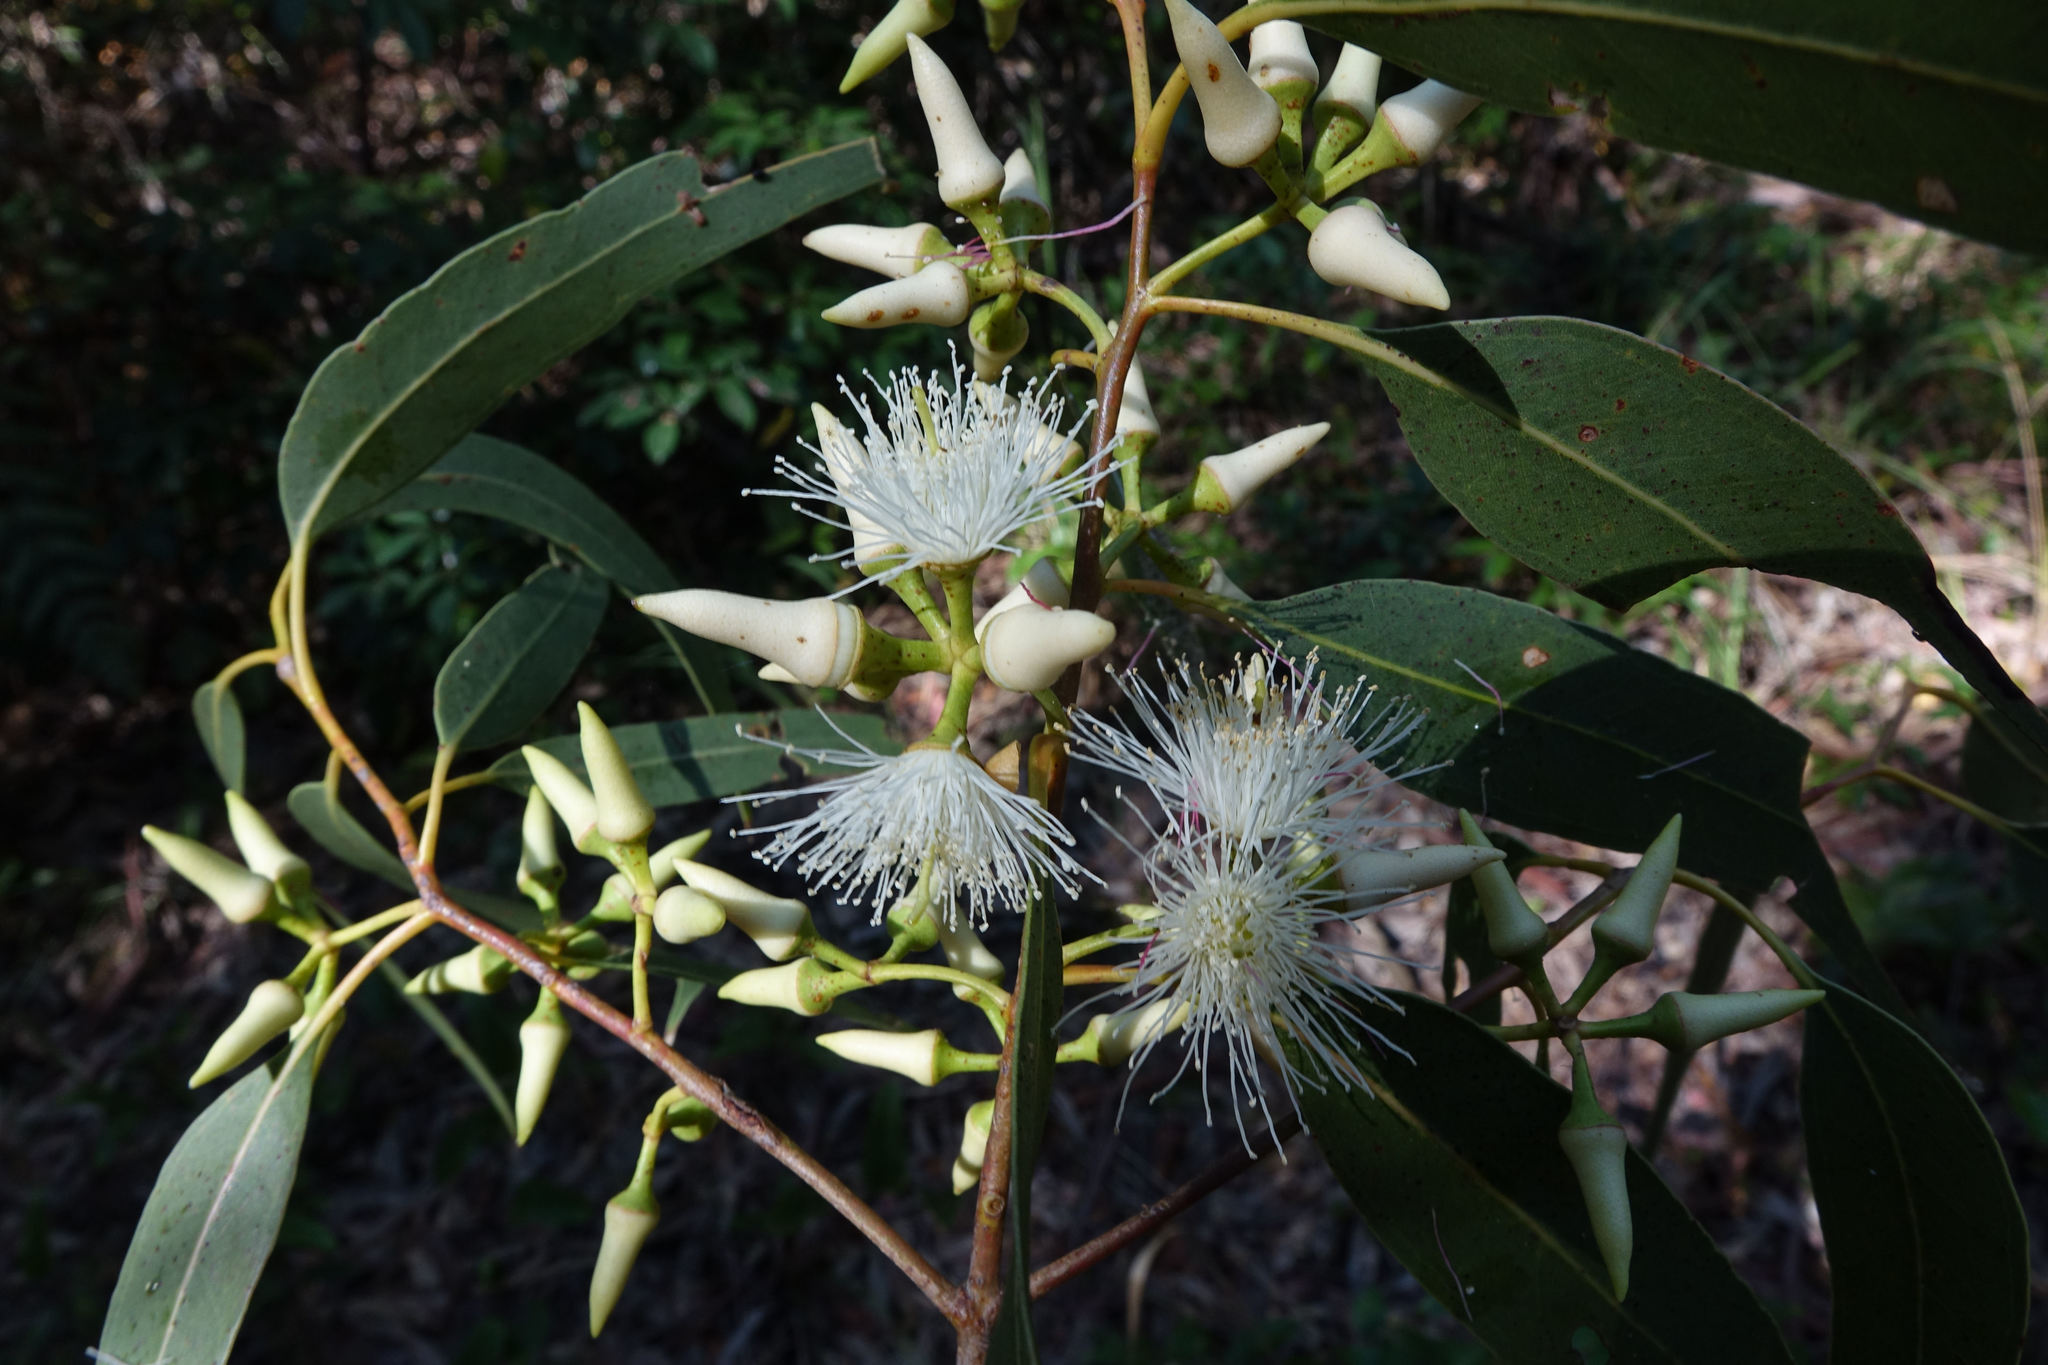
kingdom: Plantae
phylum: Tracheophyta
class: Magnoliopsida
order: Myrtales
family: Myrtaceae
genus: Eucalyptus
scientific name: Eucalyptus tereticornis
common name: Forest redgum
